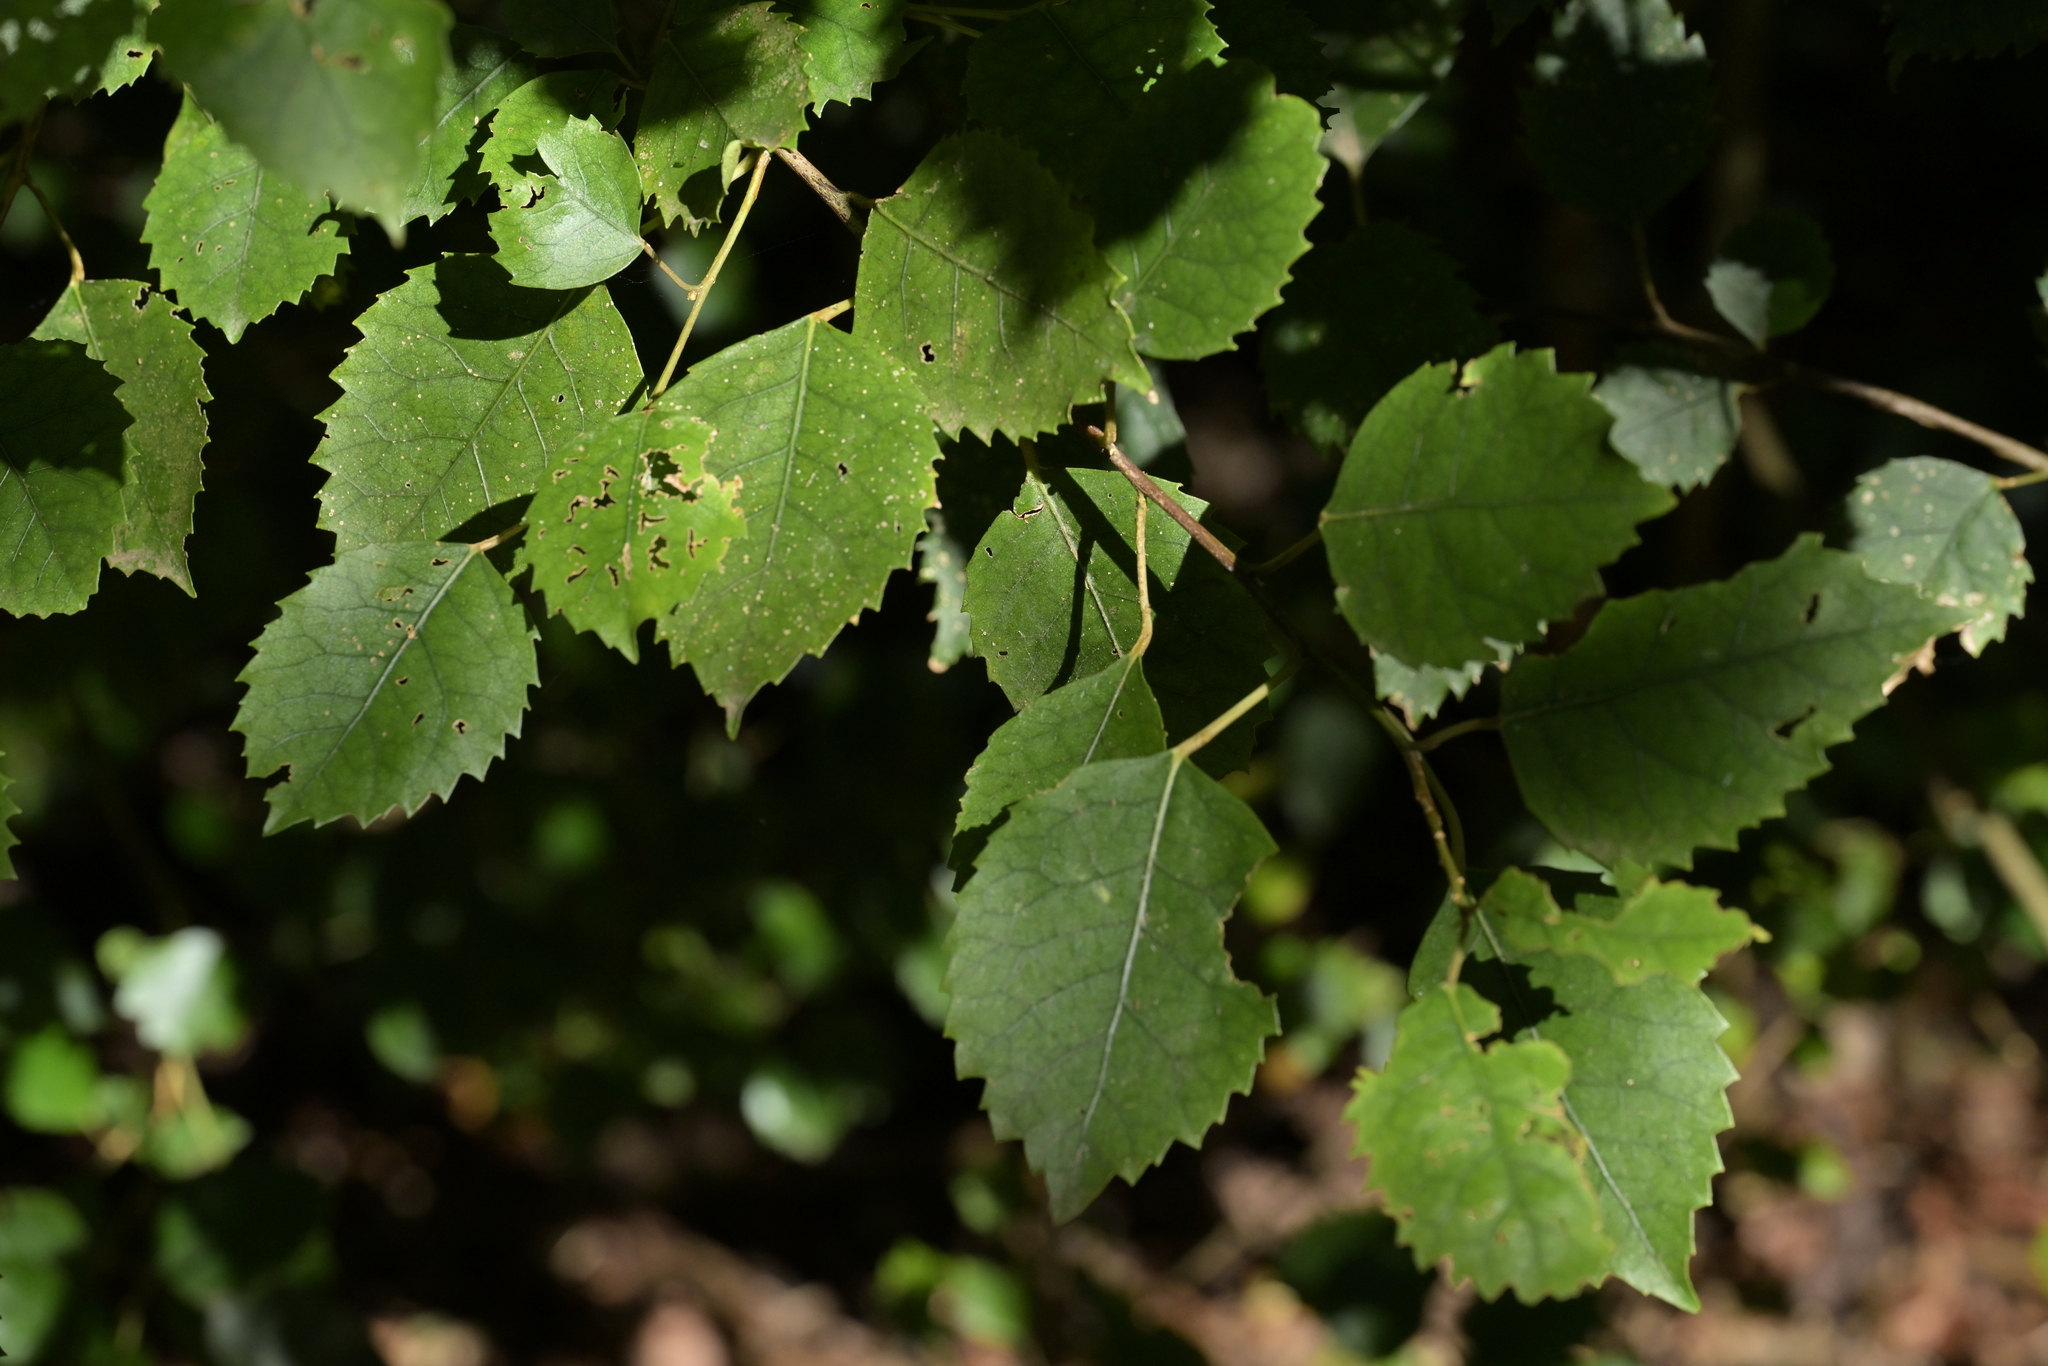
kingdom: Plantae
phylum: Tracheophyta
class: Magnoliopsida
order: Malvales
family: Malvaceae
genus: Hoheria
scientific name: Hoheria populnea
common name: Lacebark
